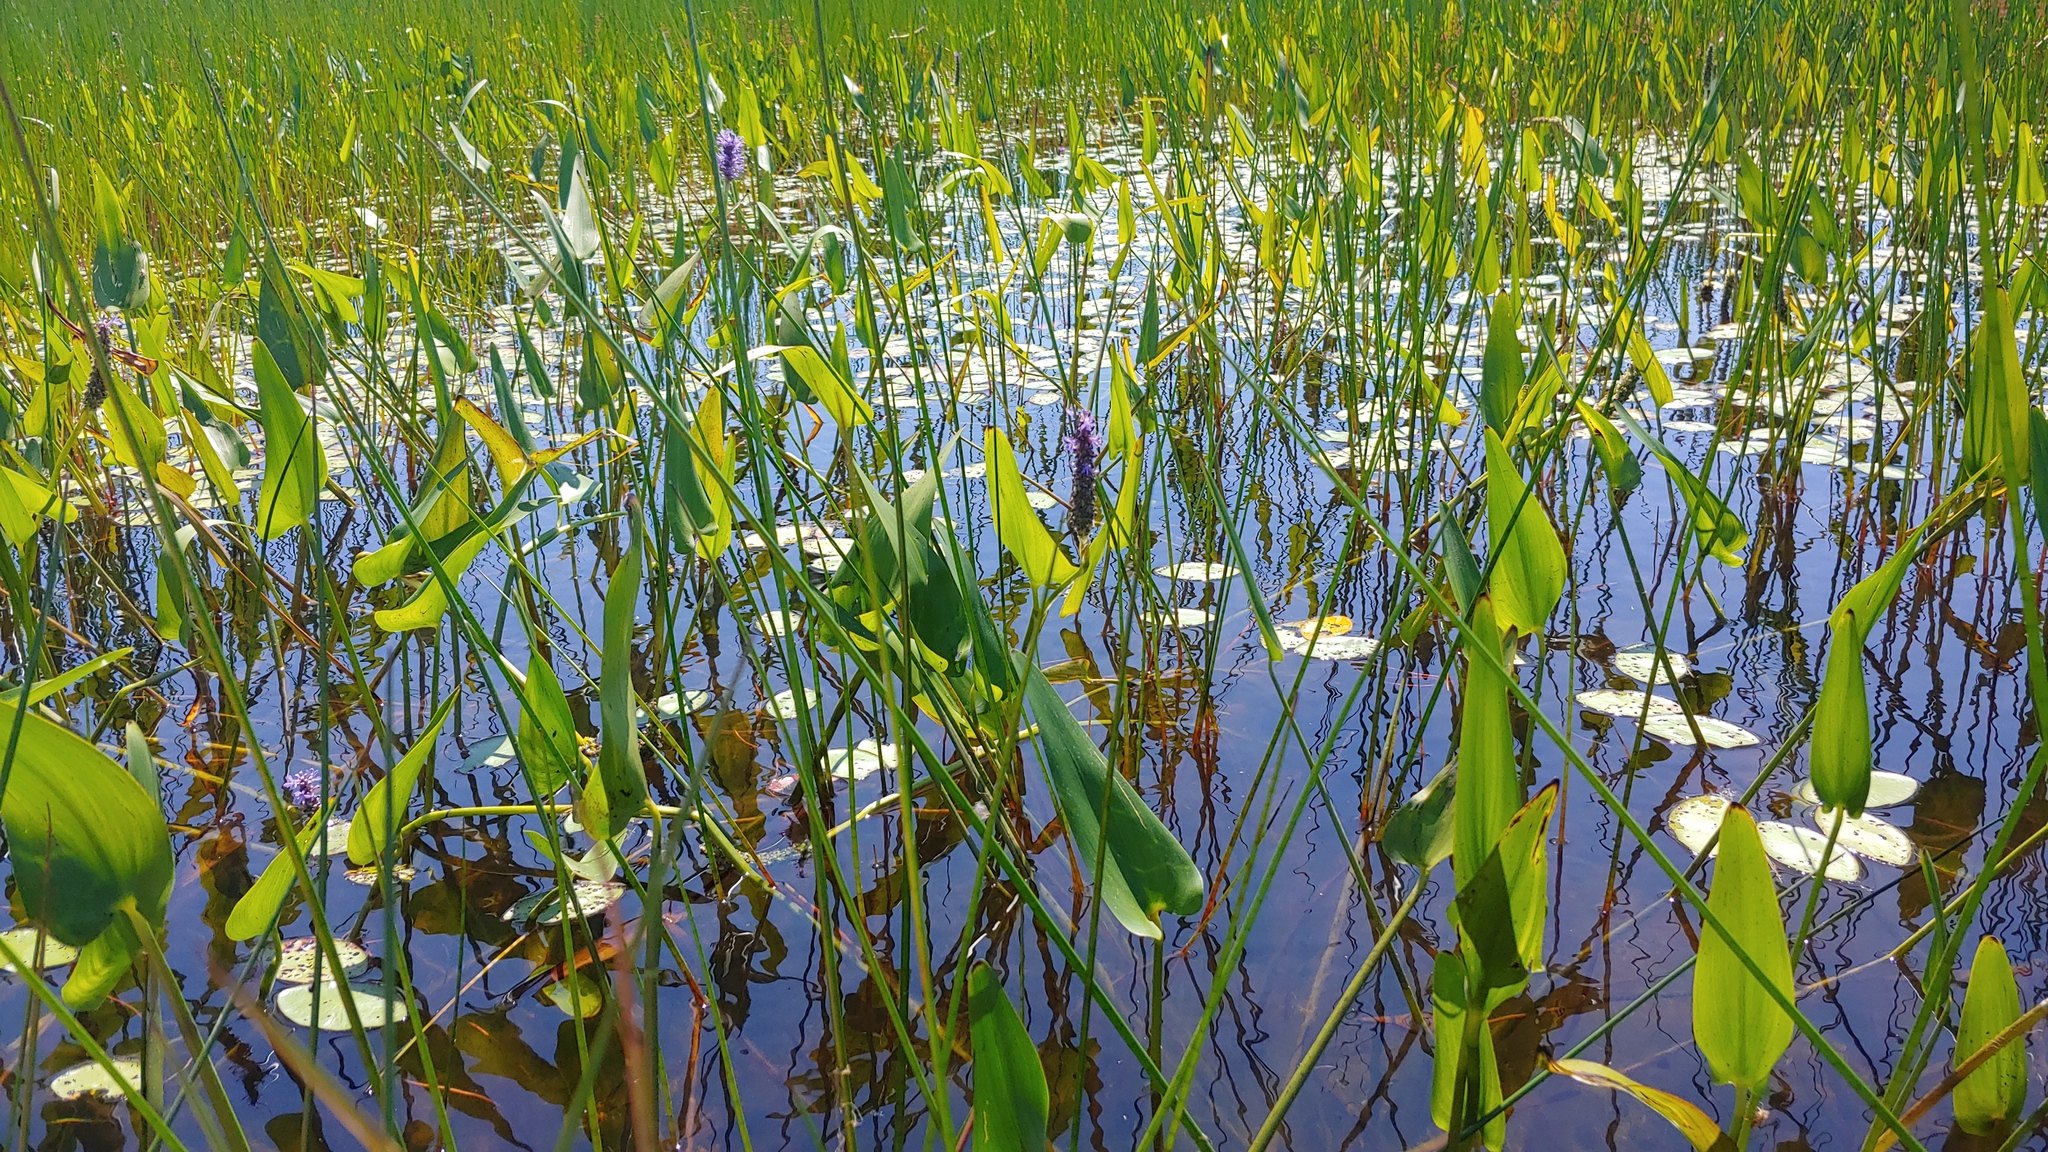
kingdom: Plantae
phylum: Tracheophyta
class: Magnoliopsida
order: Nymphaeales
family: Cabombaceae
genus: Brasenia
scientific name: Brasenia schreberi
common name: Water-shield
